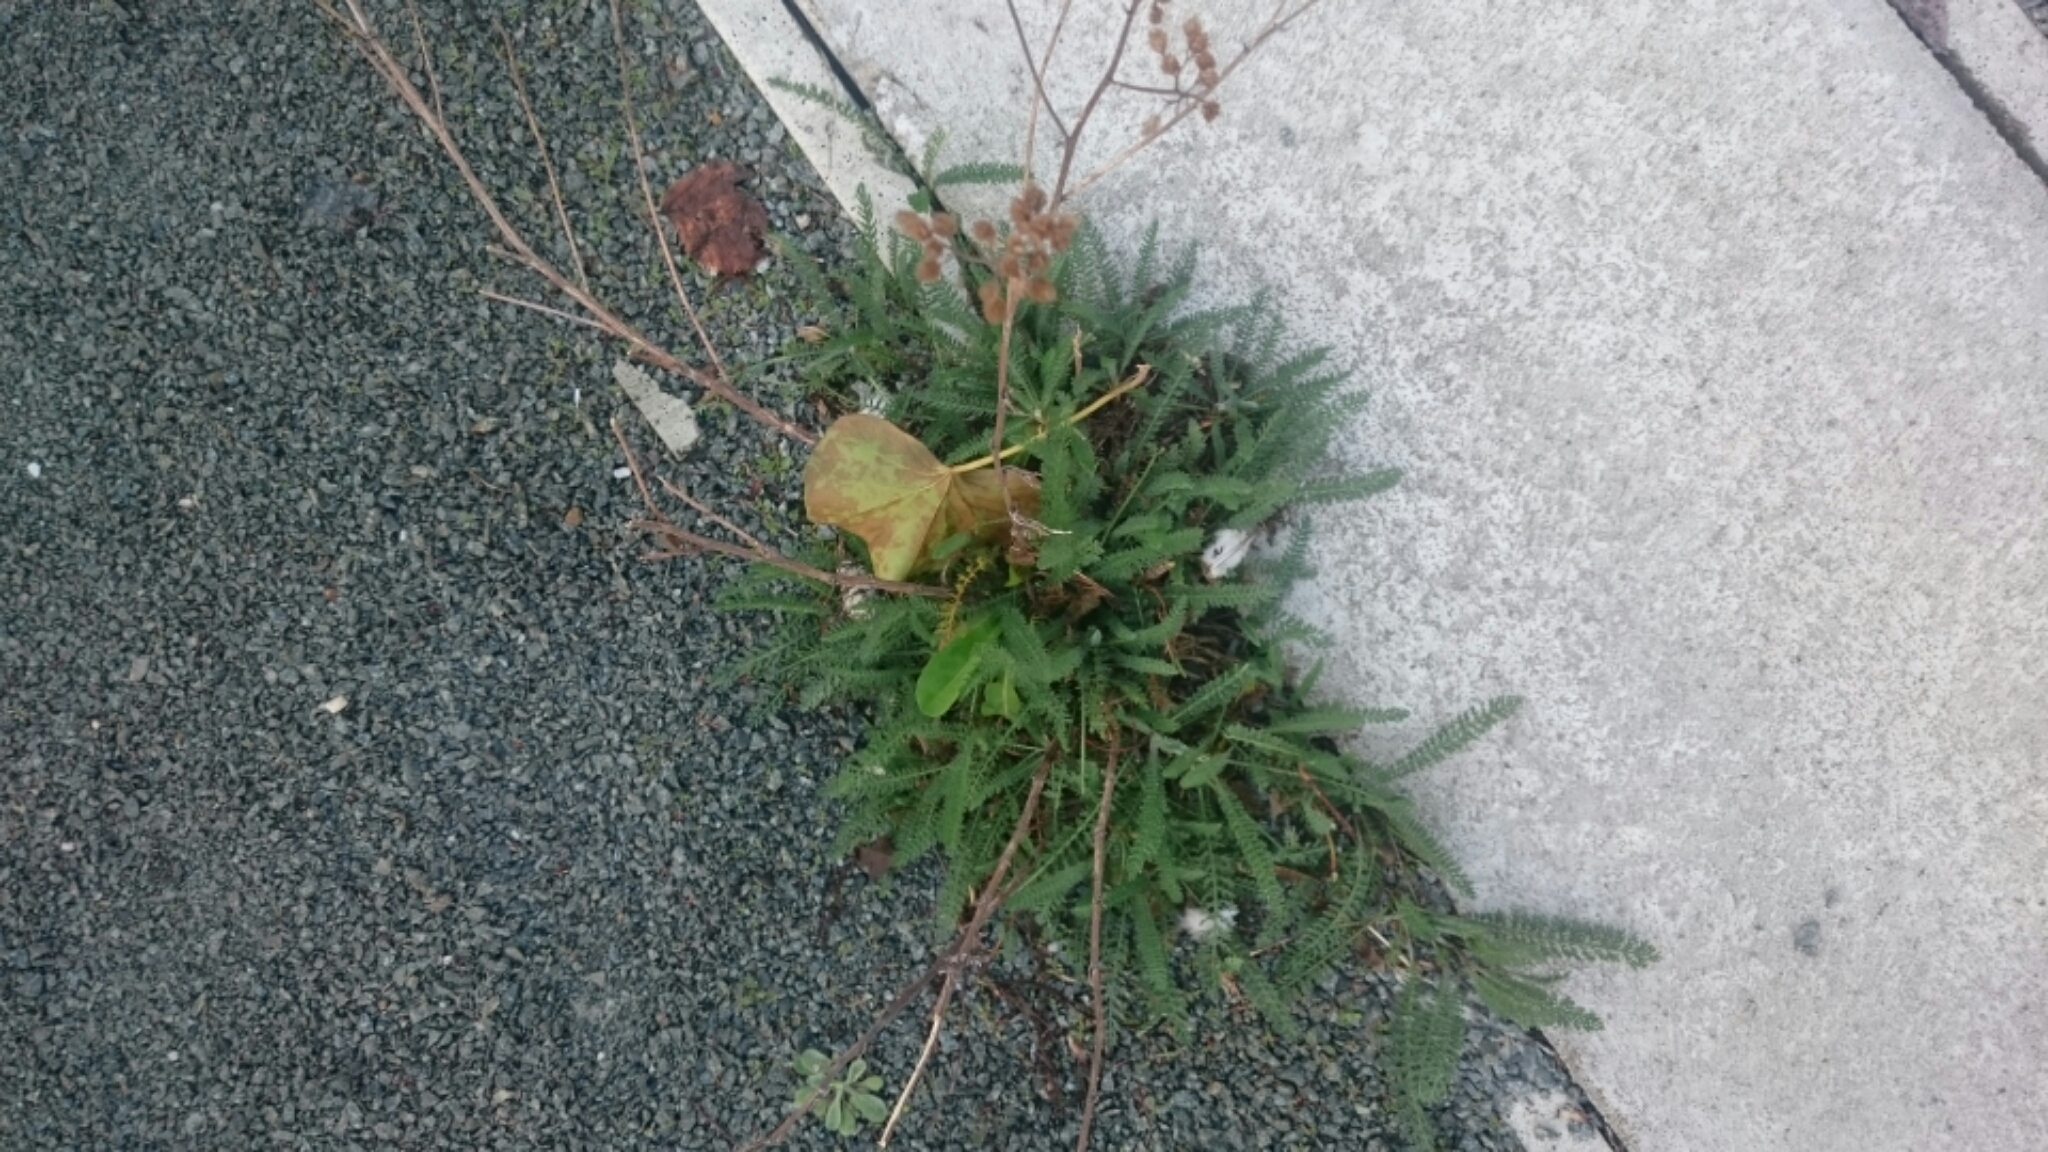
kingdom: Plantae
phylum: Tracheophyta
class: Magnoliopsida
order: Asterales
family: Asteraceae
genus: Achillea
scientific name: Achillea millefolium
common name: Yarrow
